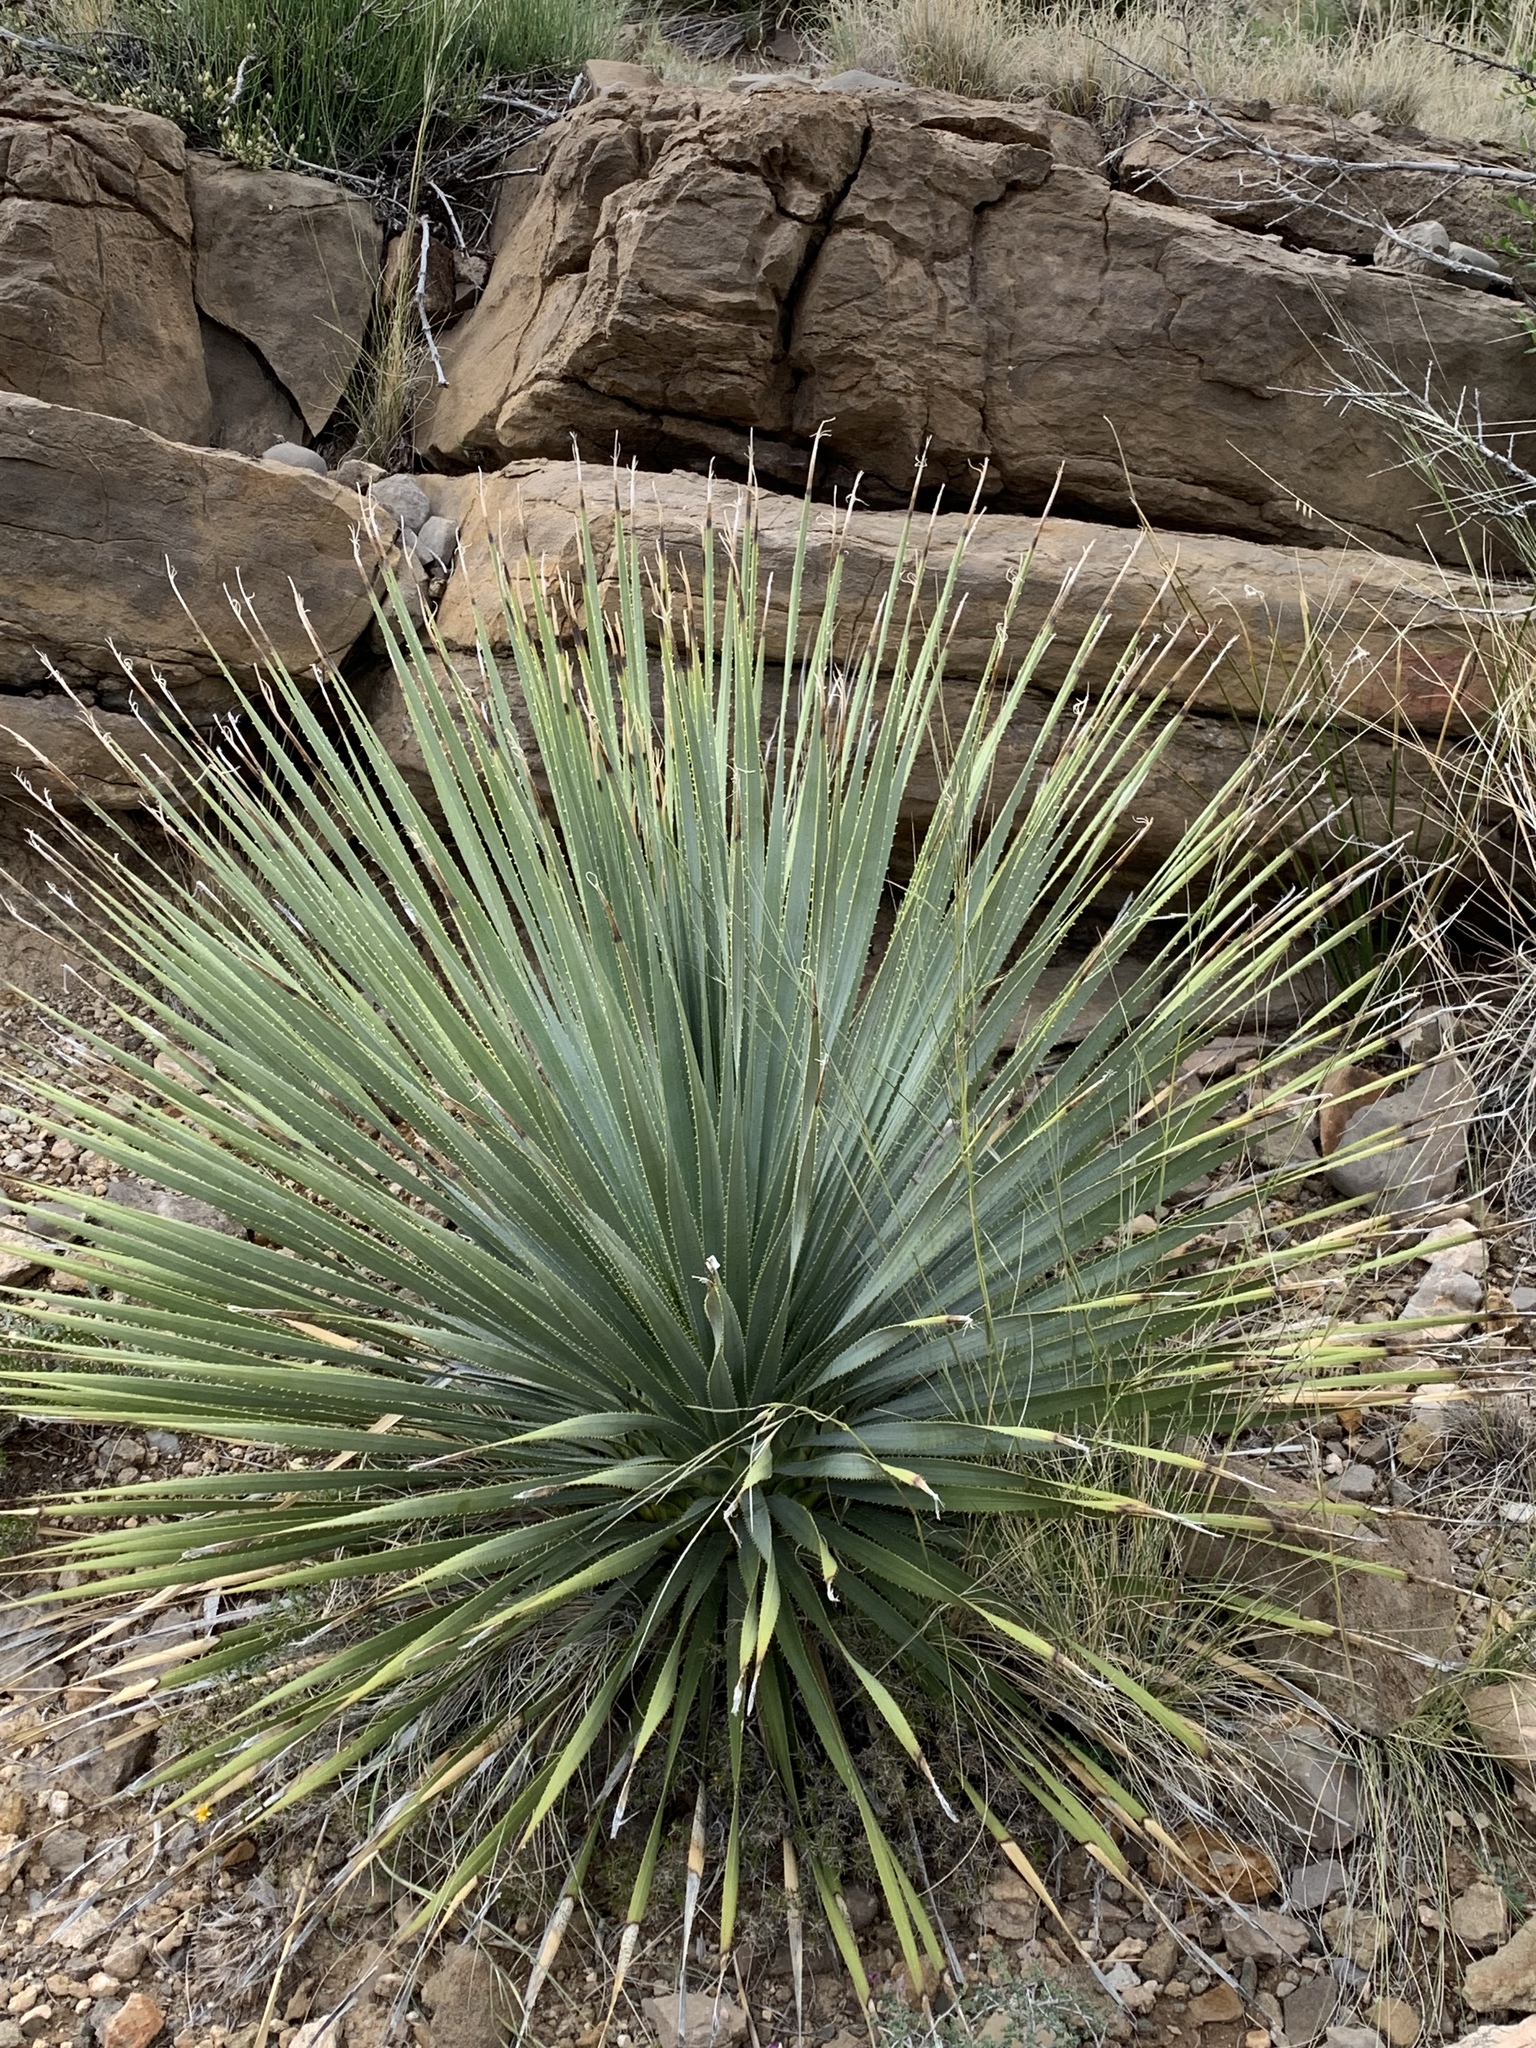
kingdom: Plantae
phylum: Tracheophyta
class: Liliopsida
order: Asparagales
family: Asparagaceae
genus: Dasylirion
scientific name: Dasylirion wheeleri
